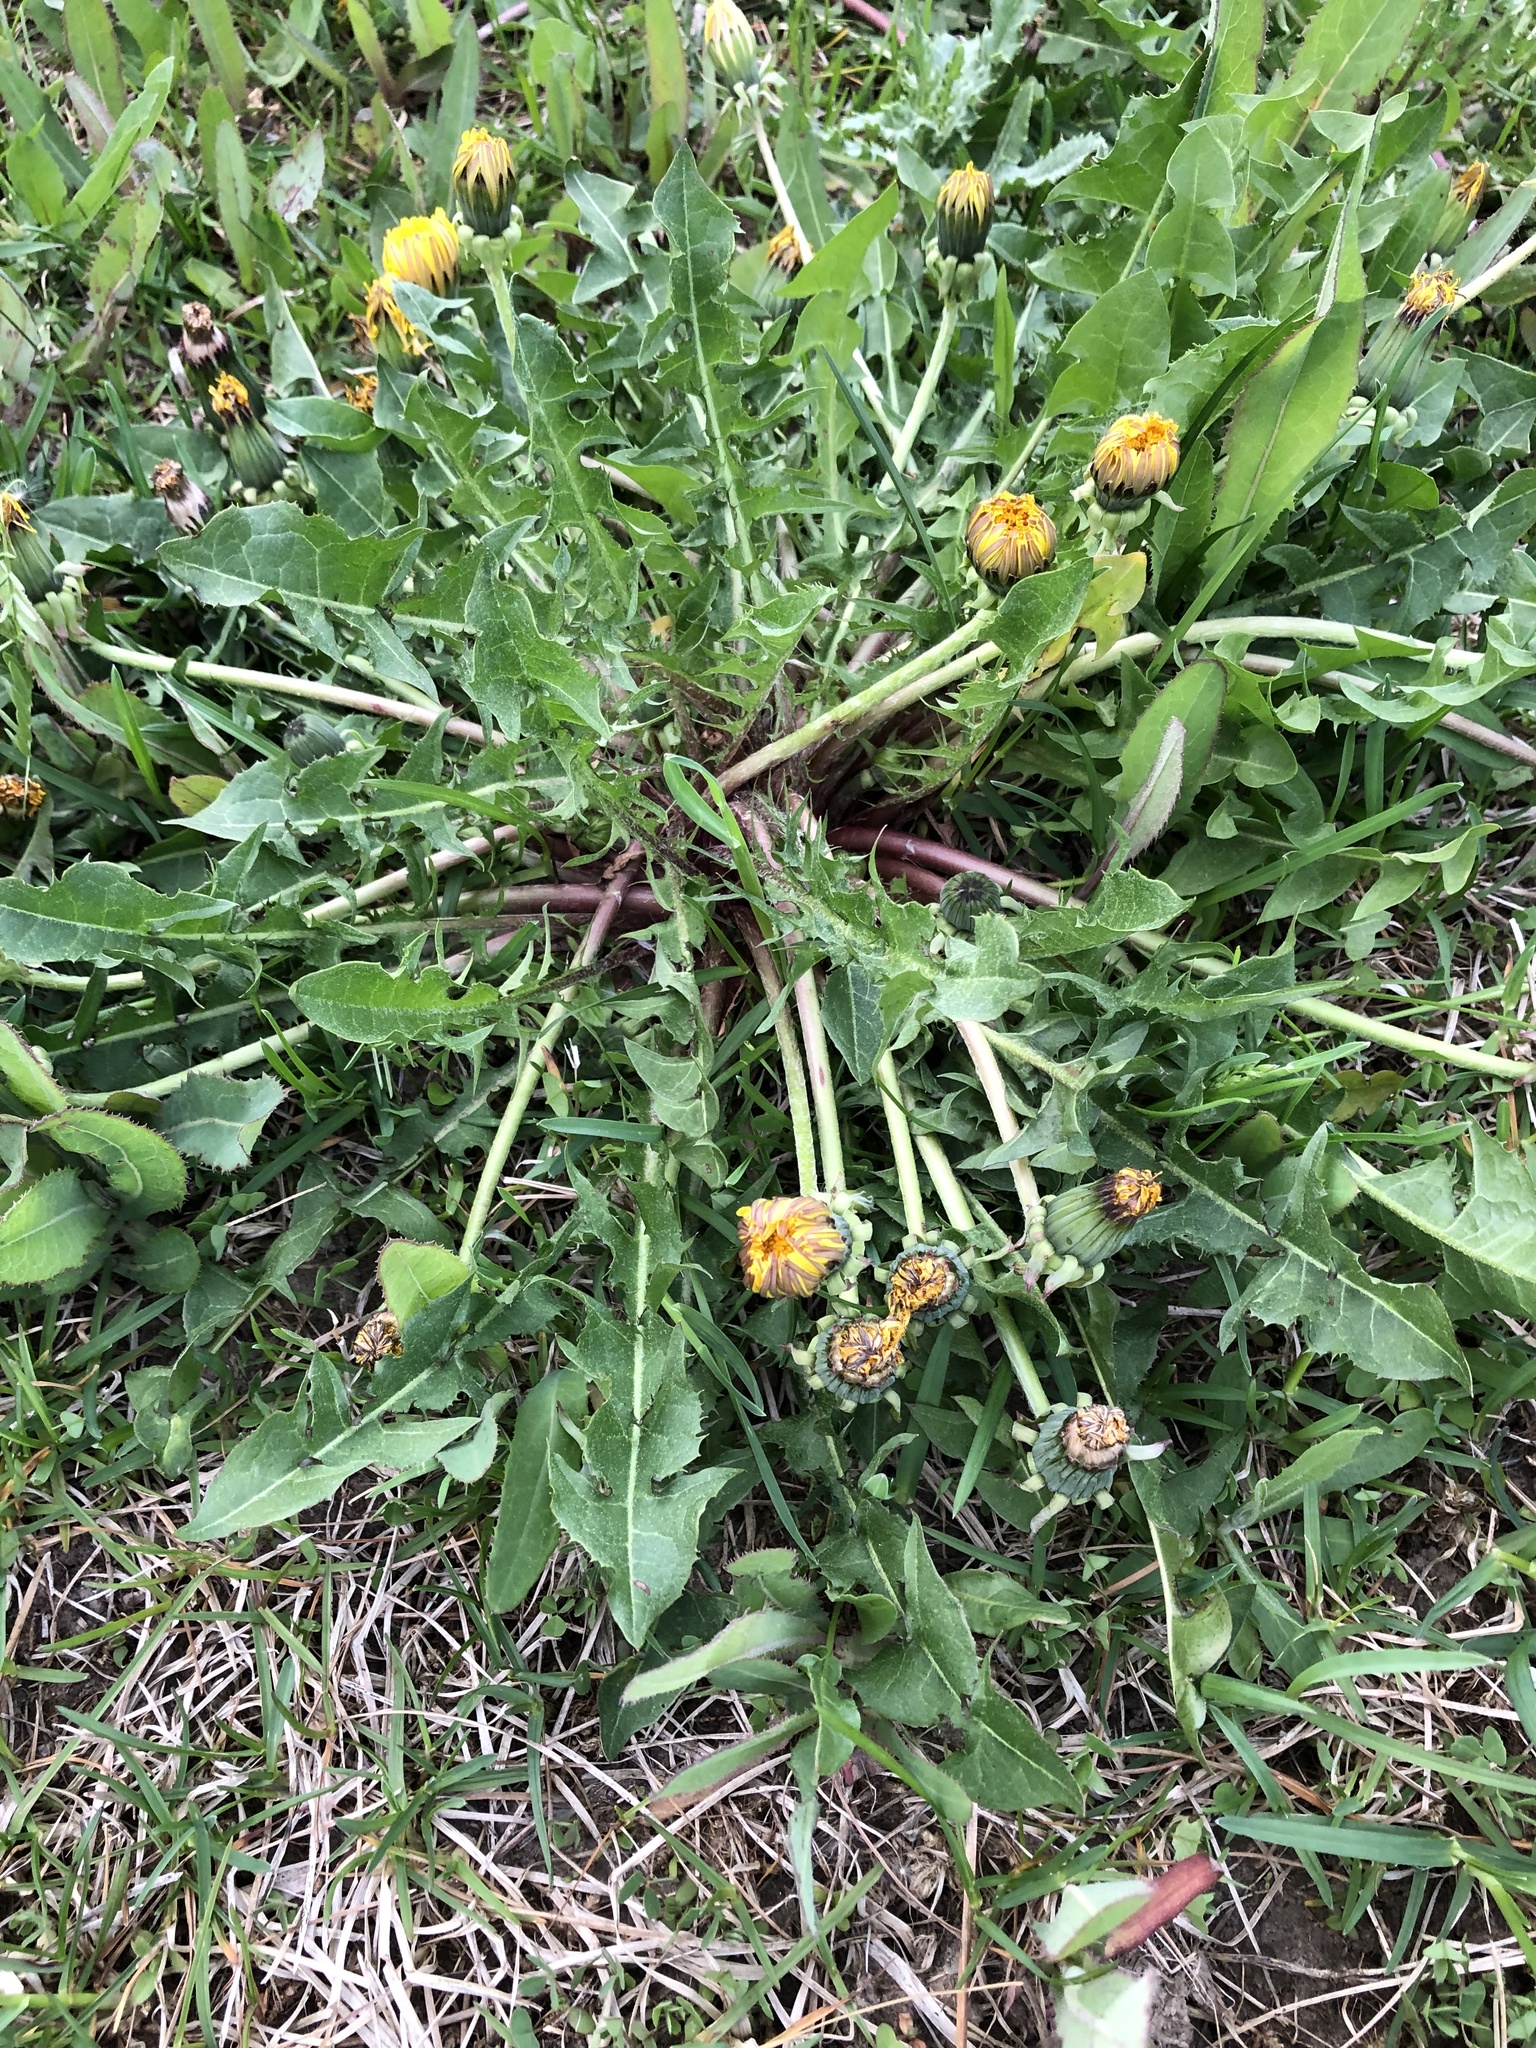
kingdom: Plantae
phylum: Tracheophyta
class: Magnoliopsida
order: Asterales
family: Asteraceae
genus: Taraxacum
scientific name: Taraxacum officinale
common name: Common dandelion
